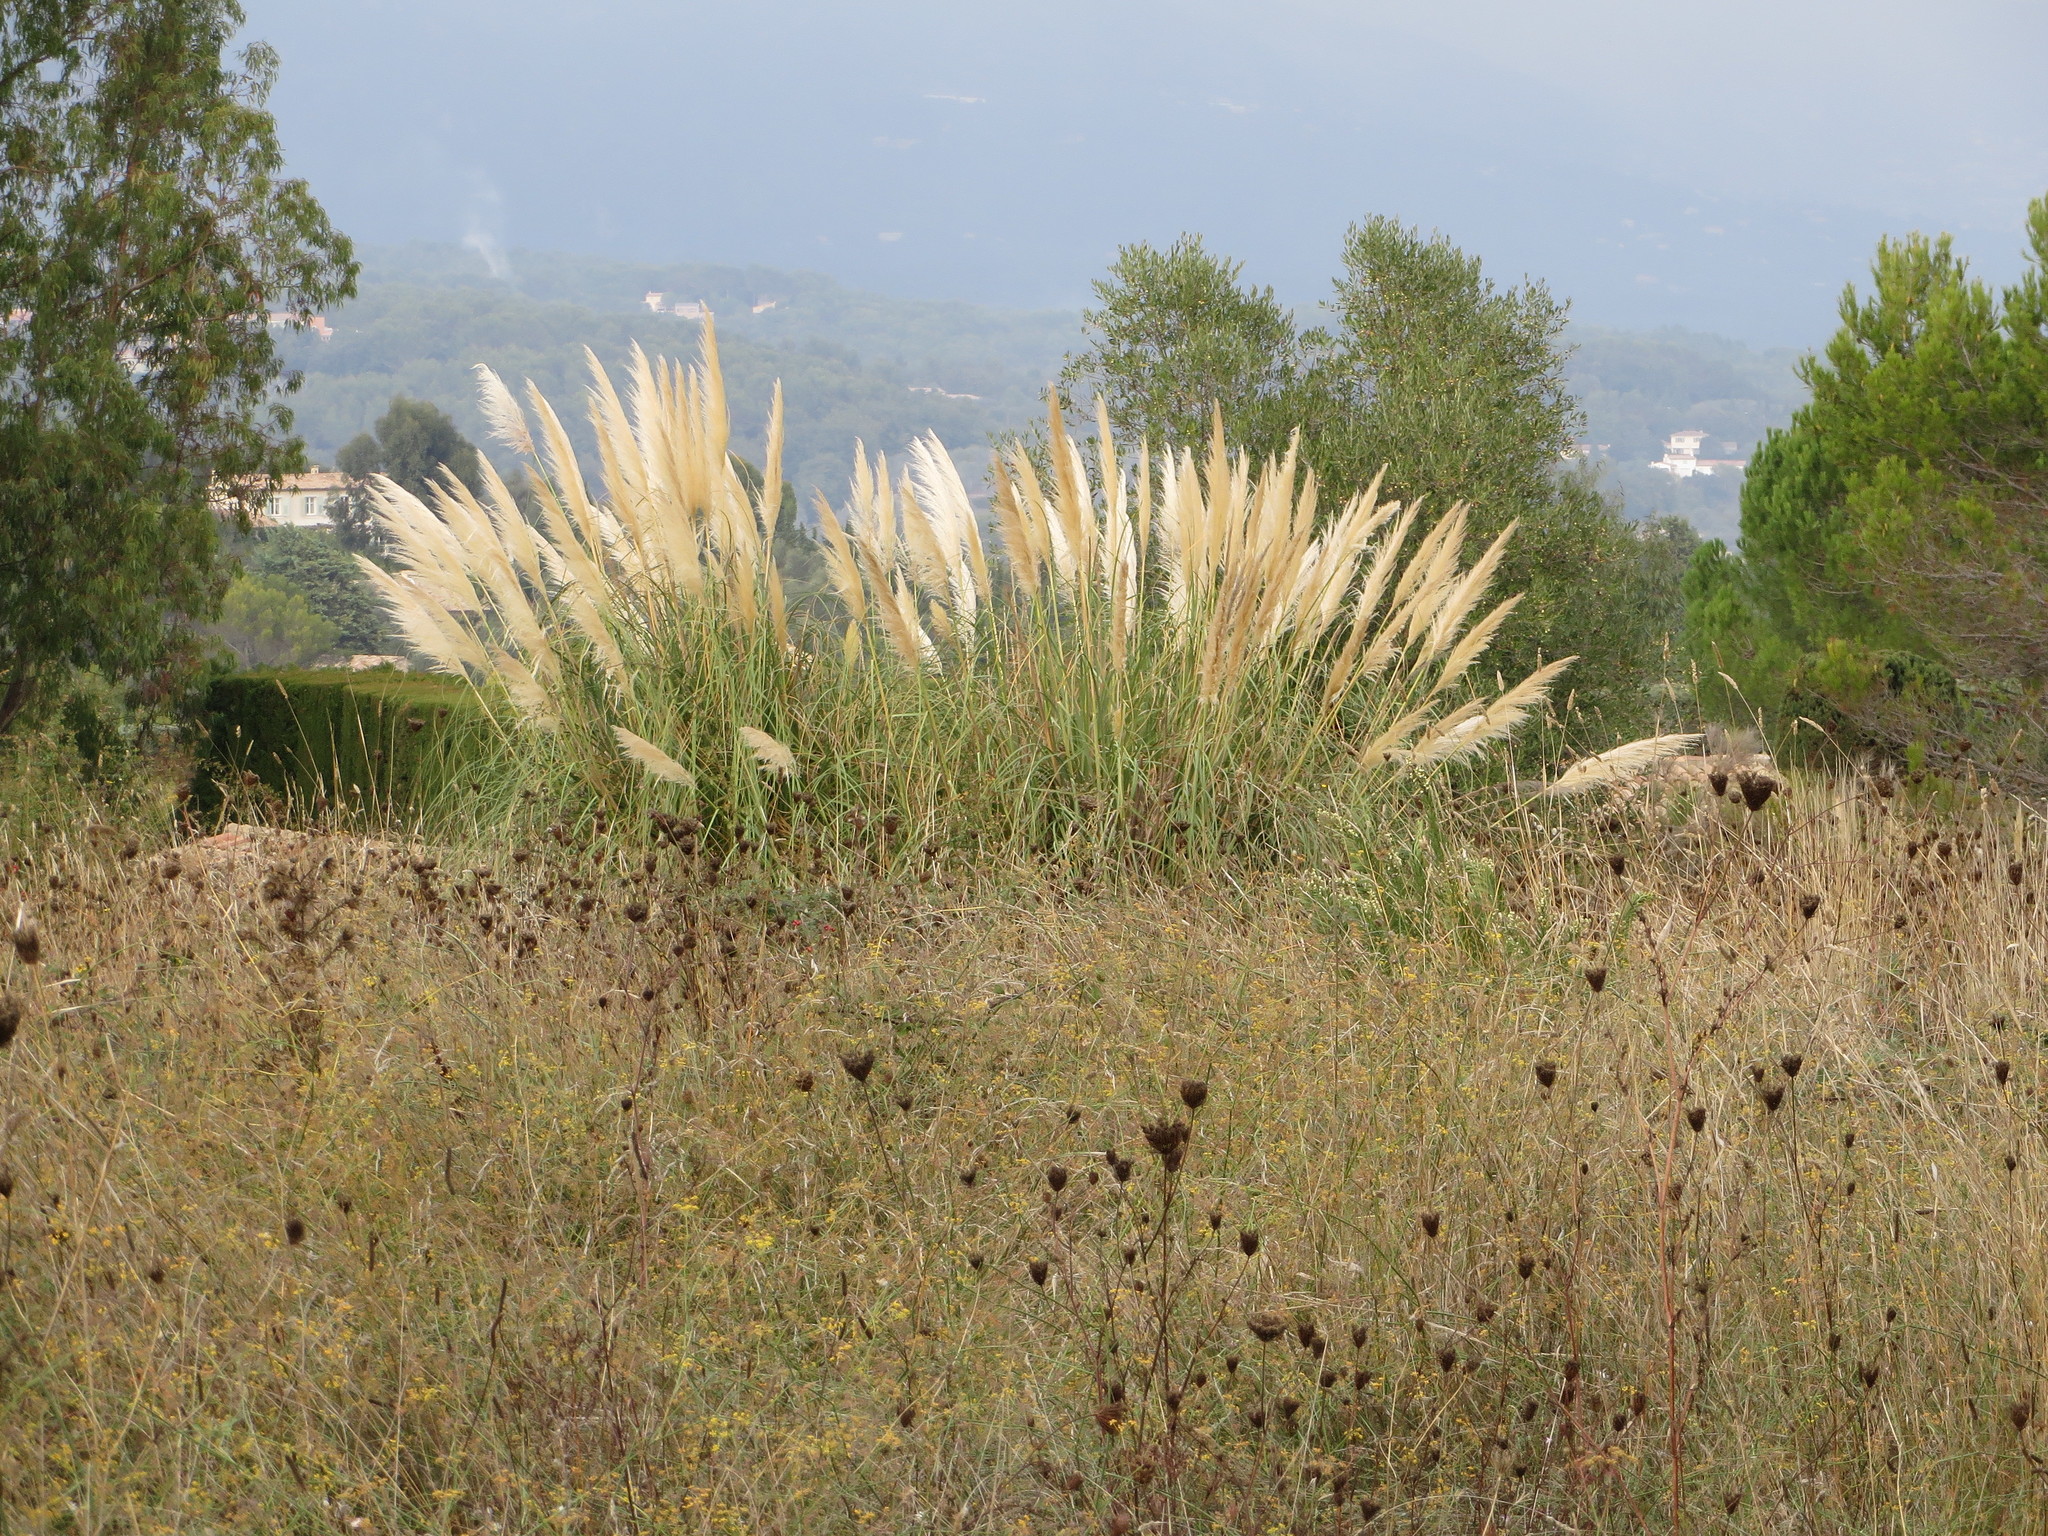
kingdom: Plantae
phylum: Tracheophyta
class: Liliopsida
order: Poales
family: Poaceae
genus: Cortaderia
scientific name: Cortaderia selloana
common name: Uruguayan pampas grass
